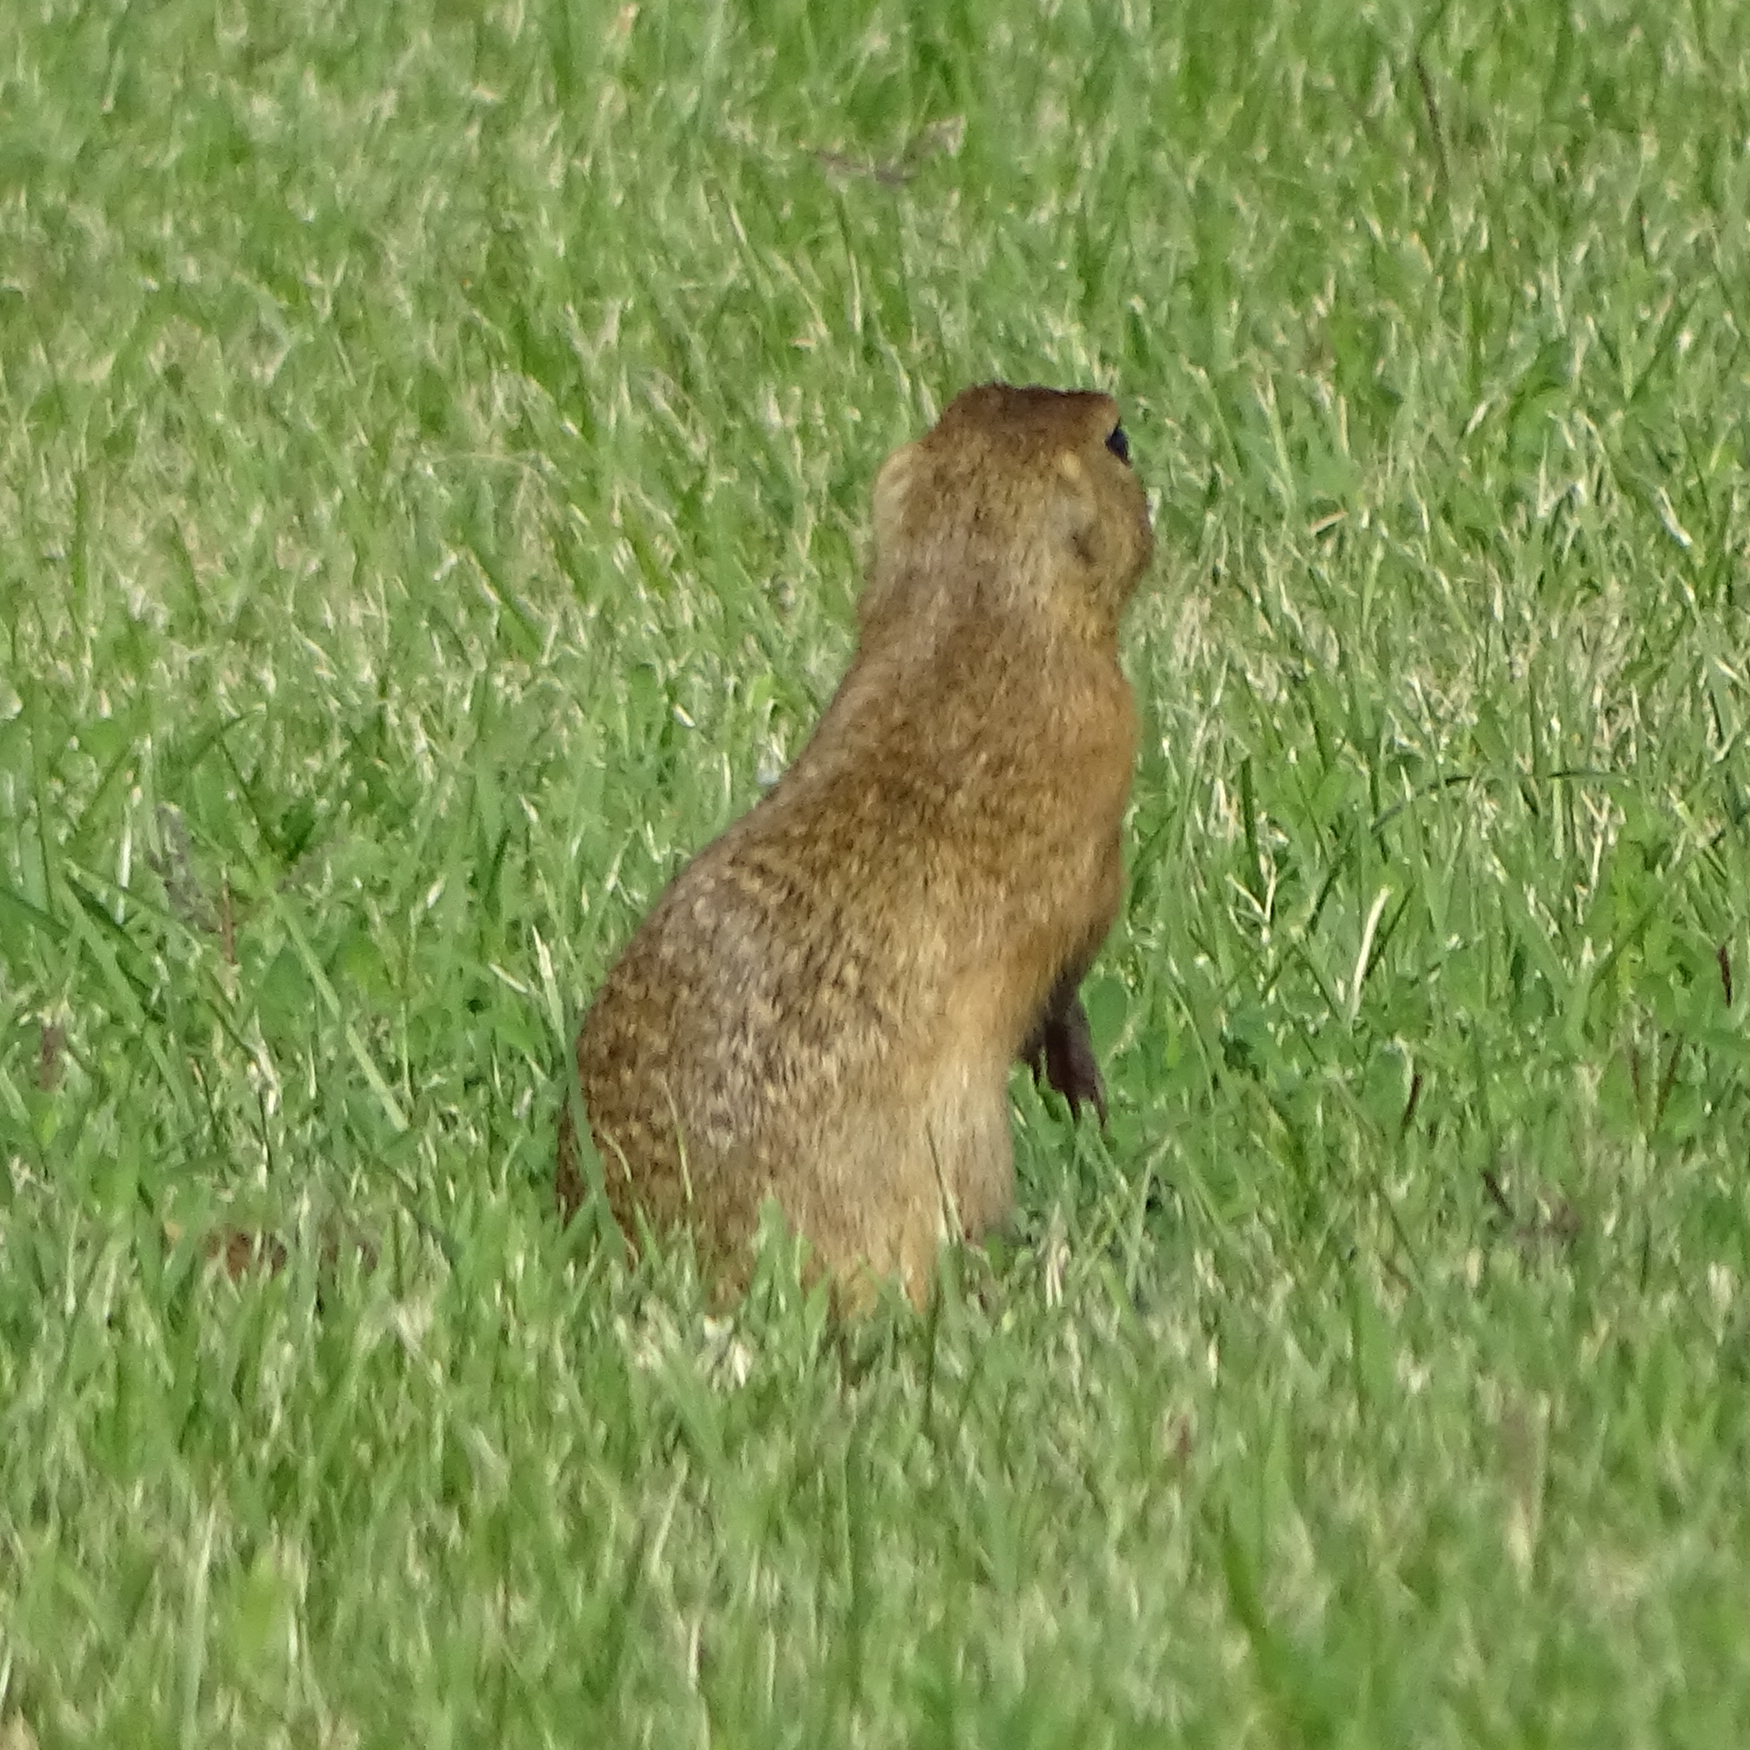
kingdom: Animalia
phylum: Chordata
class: Mammalia
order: Rodentia
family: Sciuridae
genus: Spermophilus
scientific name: Spermophilus citellus
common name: European ground squirrel
